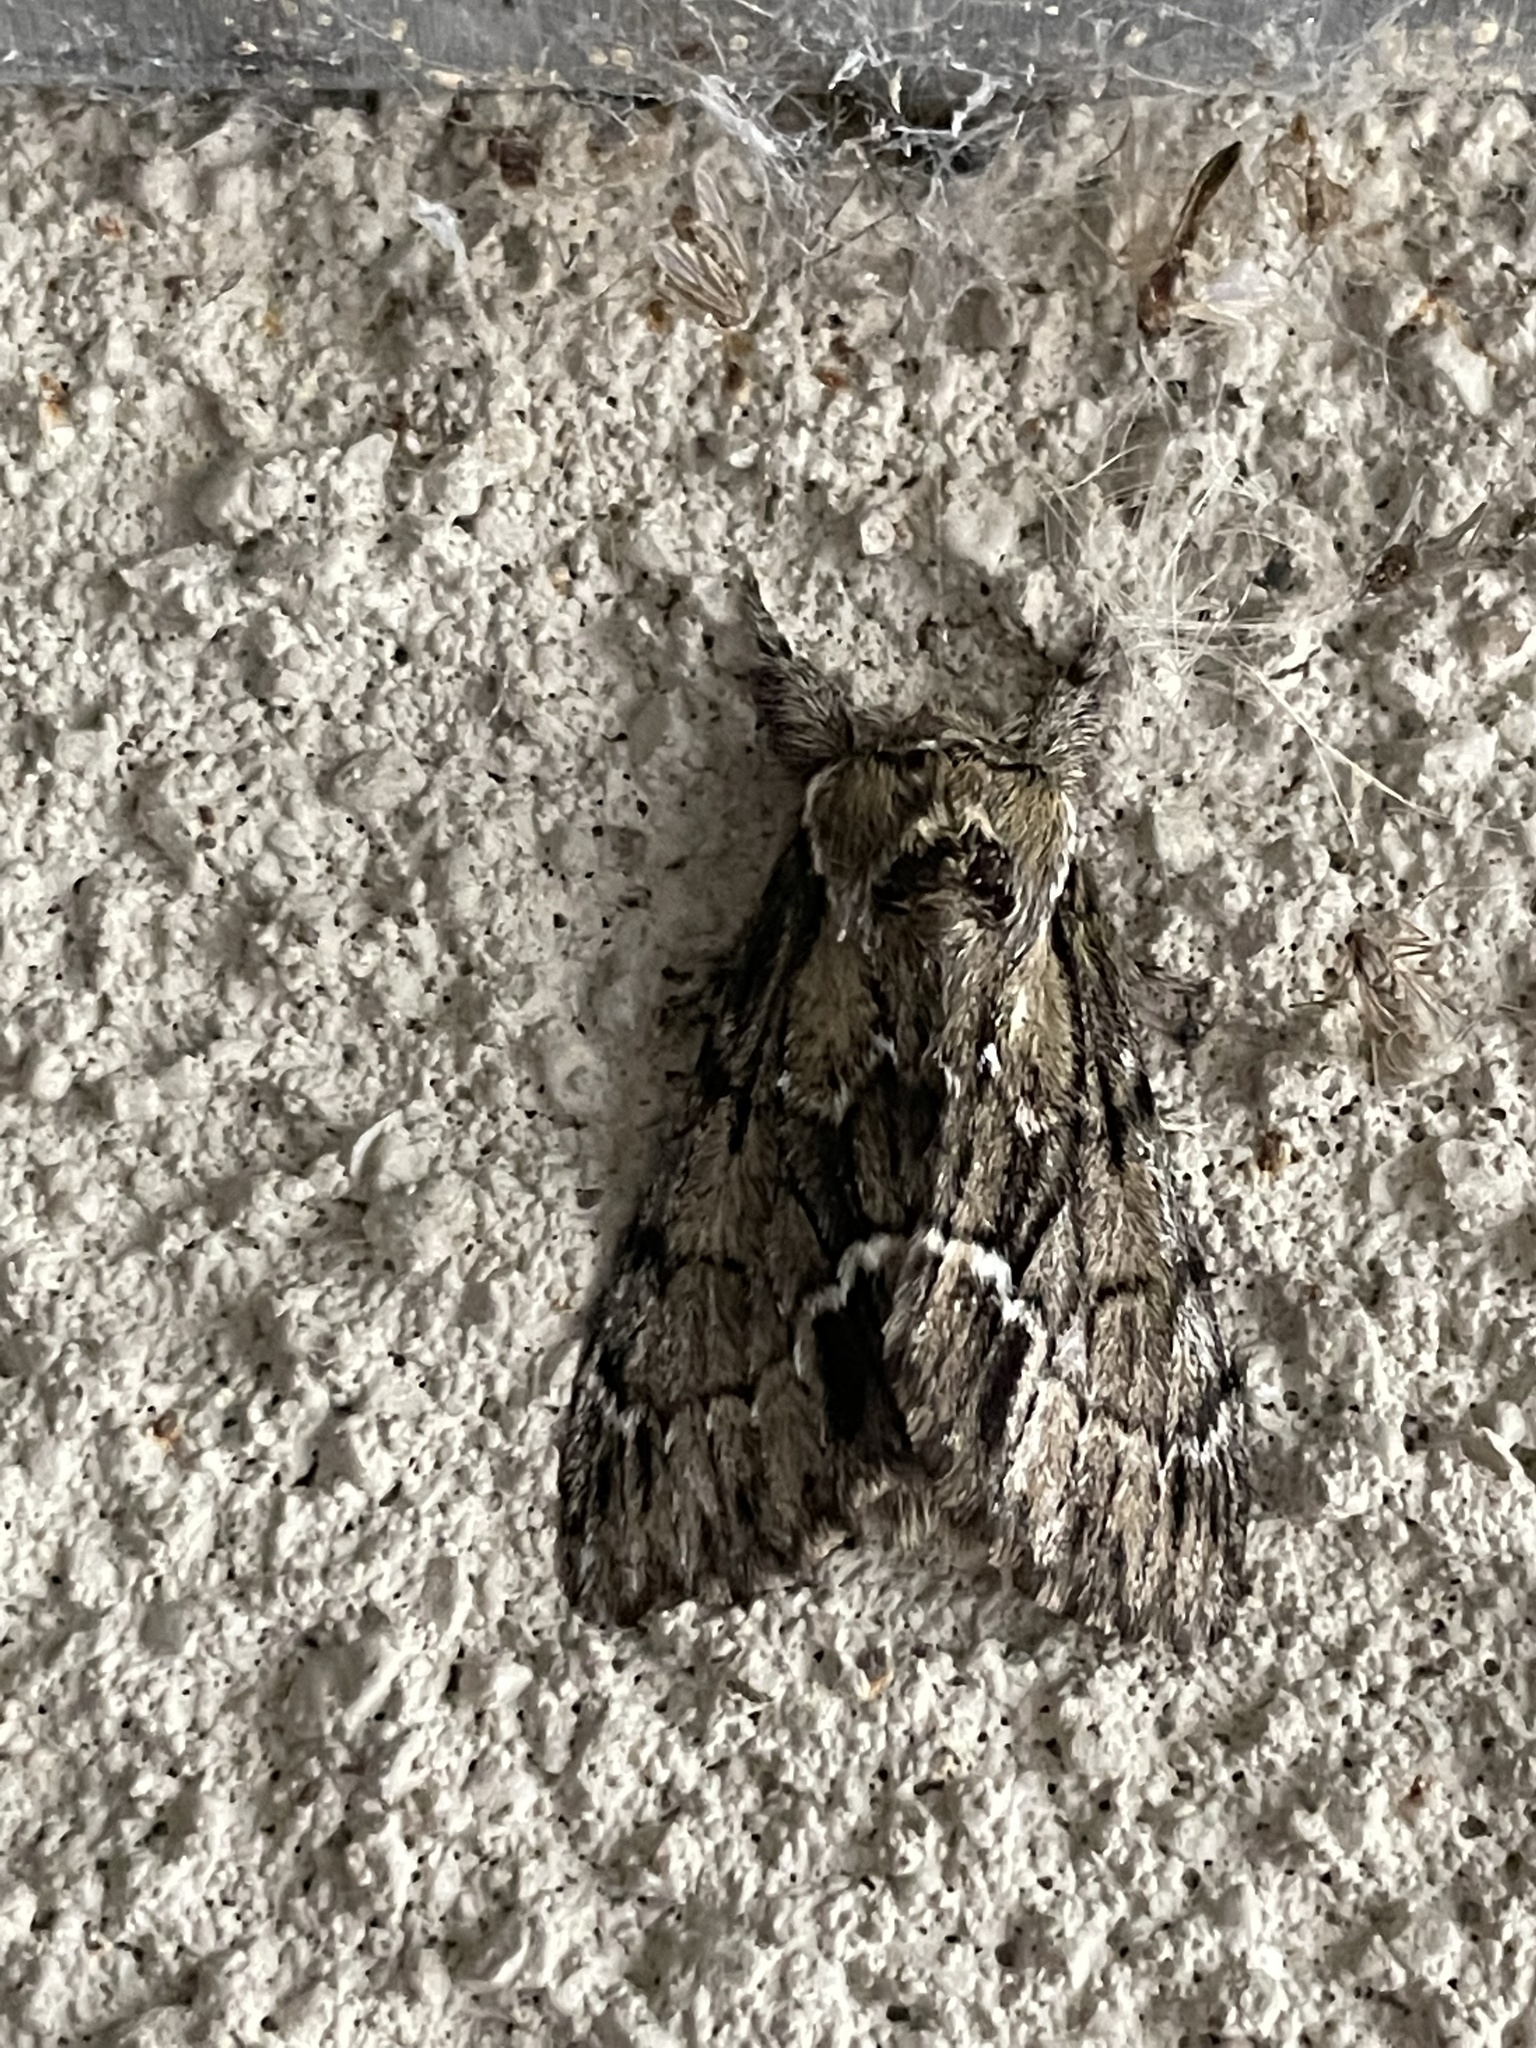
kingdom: Animalia
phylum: Arthropoda
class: Insecta
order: Lepidoptera
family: Notodontidae
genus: Paraeschra
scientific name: Paraeschra georgica
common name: Georgian prominent
